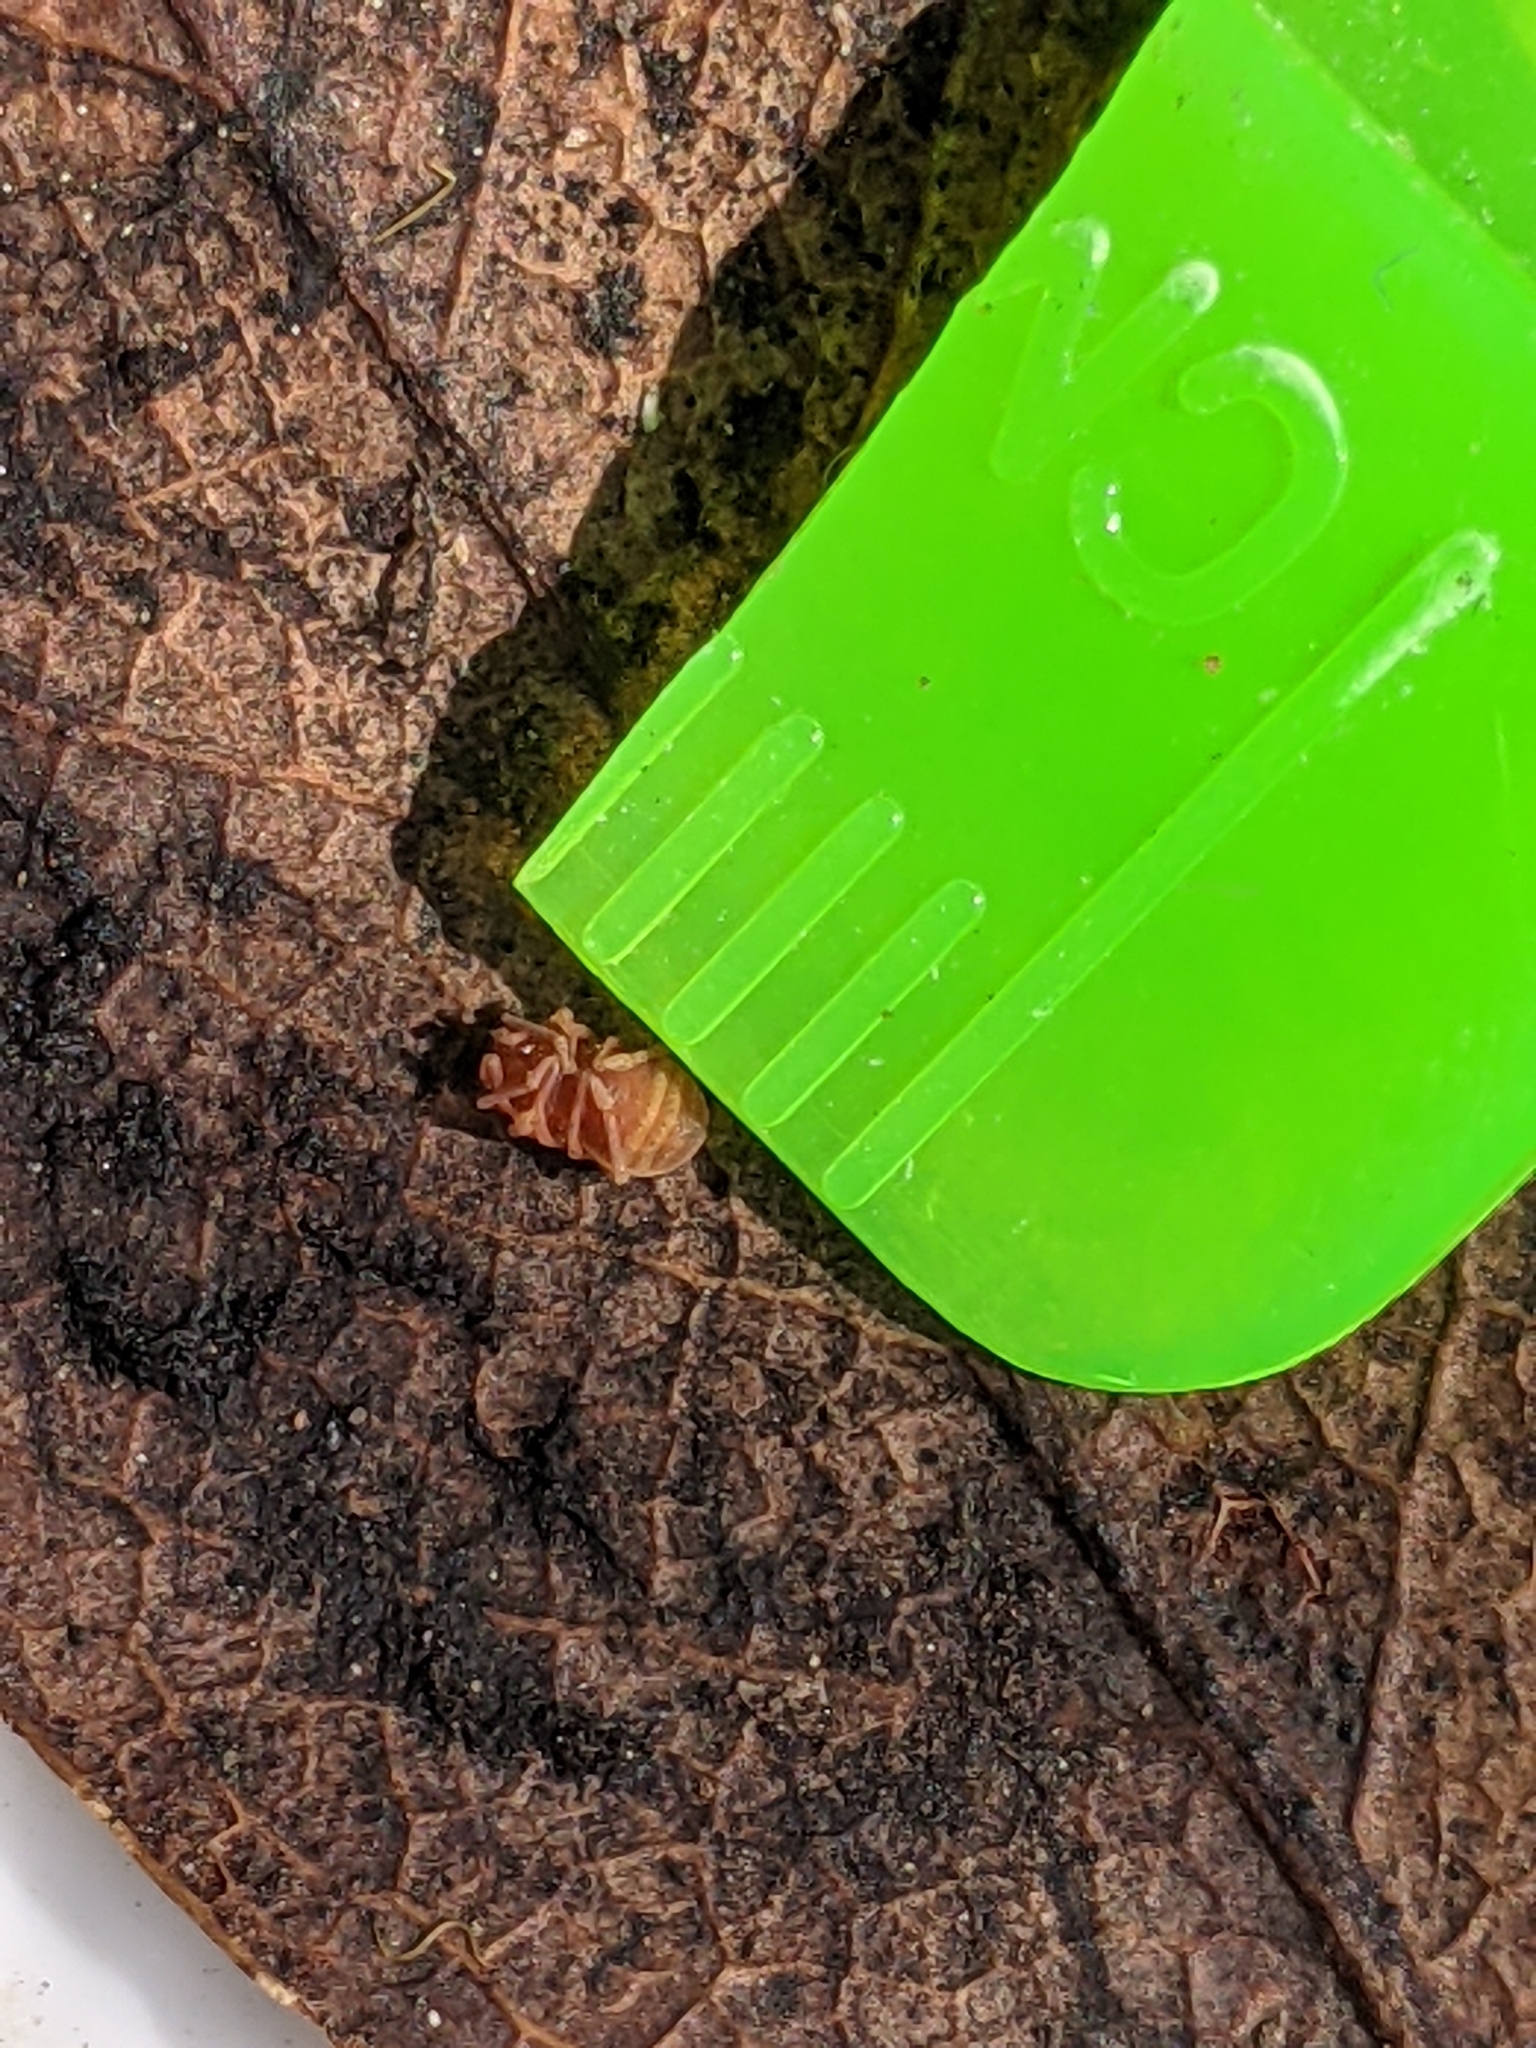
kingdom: Animalia
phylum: Arthropoda
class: Arachnida
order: Opiliones
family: Phalangodidae
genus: Sitalcina
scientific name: Sitalcina californica
